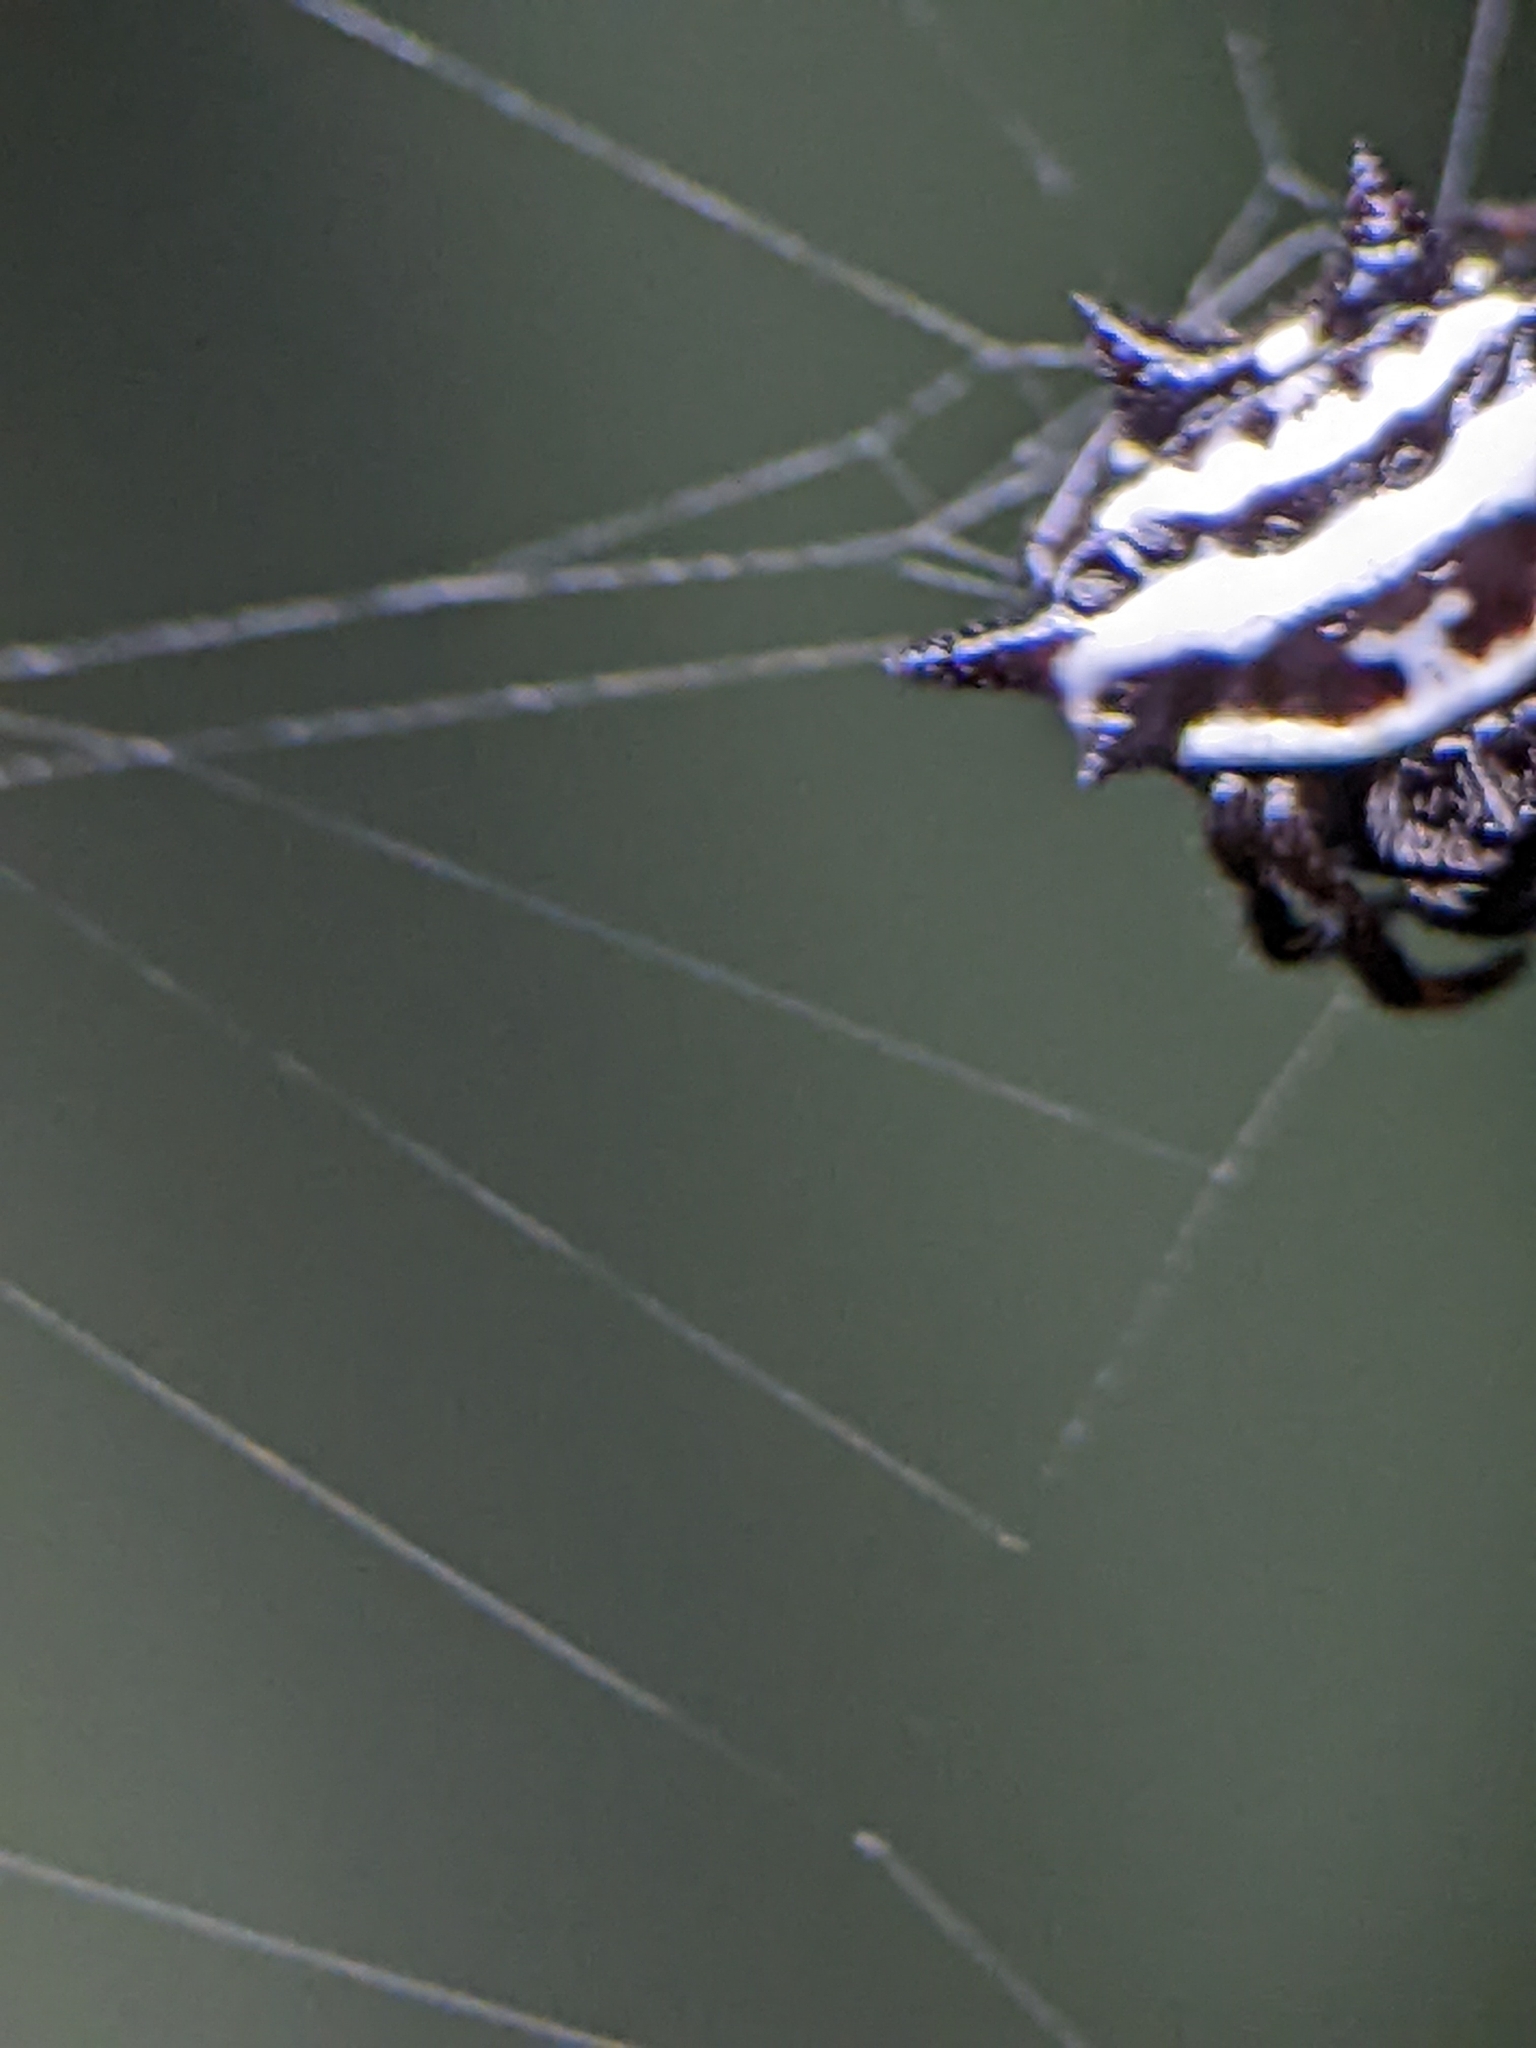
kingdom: Animalia
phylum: Arthropoda
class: Arachnida
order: Araneae
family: Araneidae
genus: Gasteracantha
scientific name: Gasteracantha doriae
